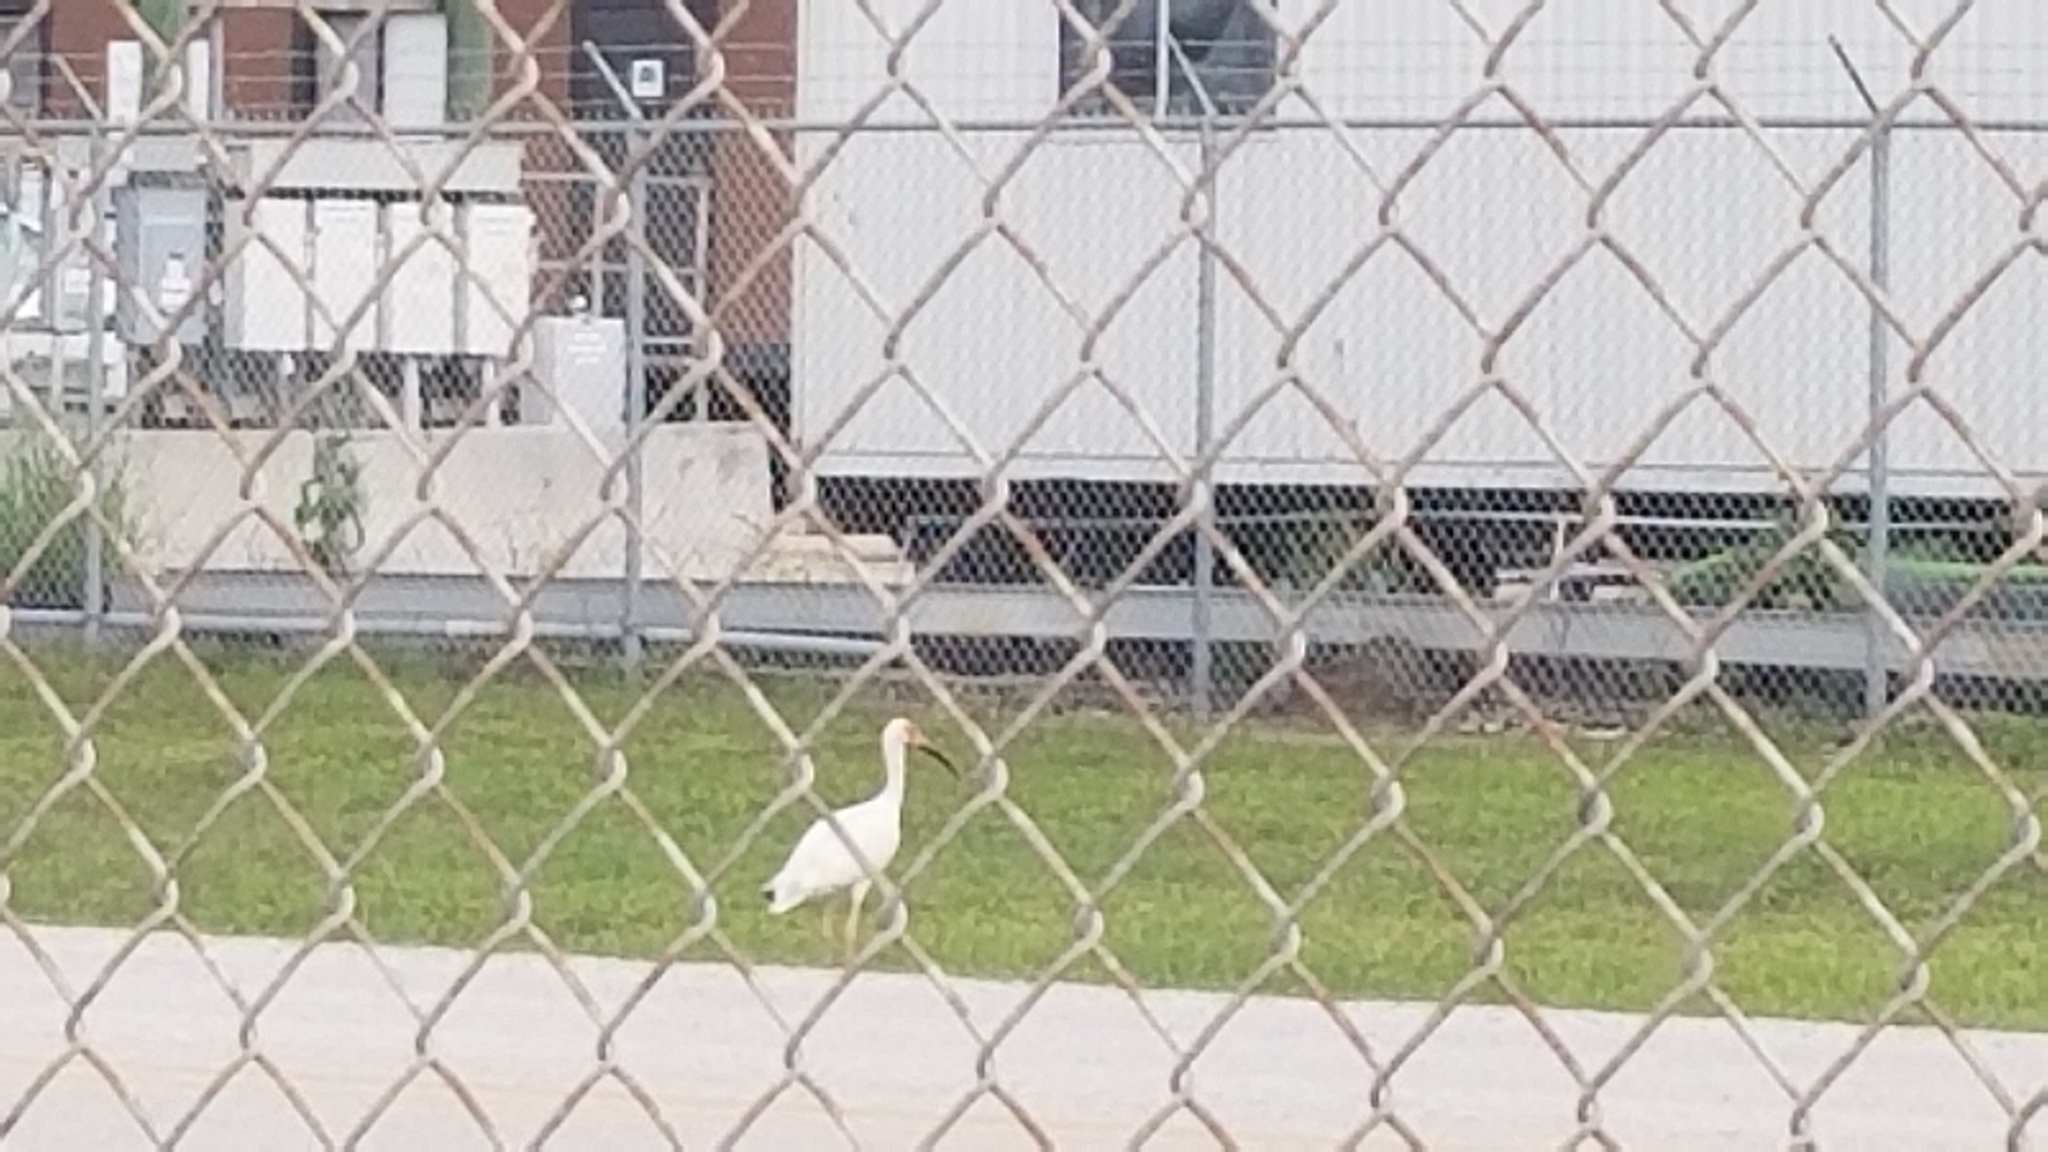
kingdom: Animalia
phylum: Chordata
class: Aves
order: Pelecaniformes
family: Threskiornithidae
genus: Eudocimus
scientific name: Eudocimus albus
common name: White ibis
